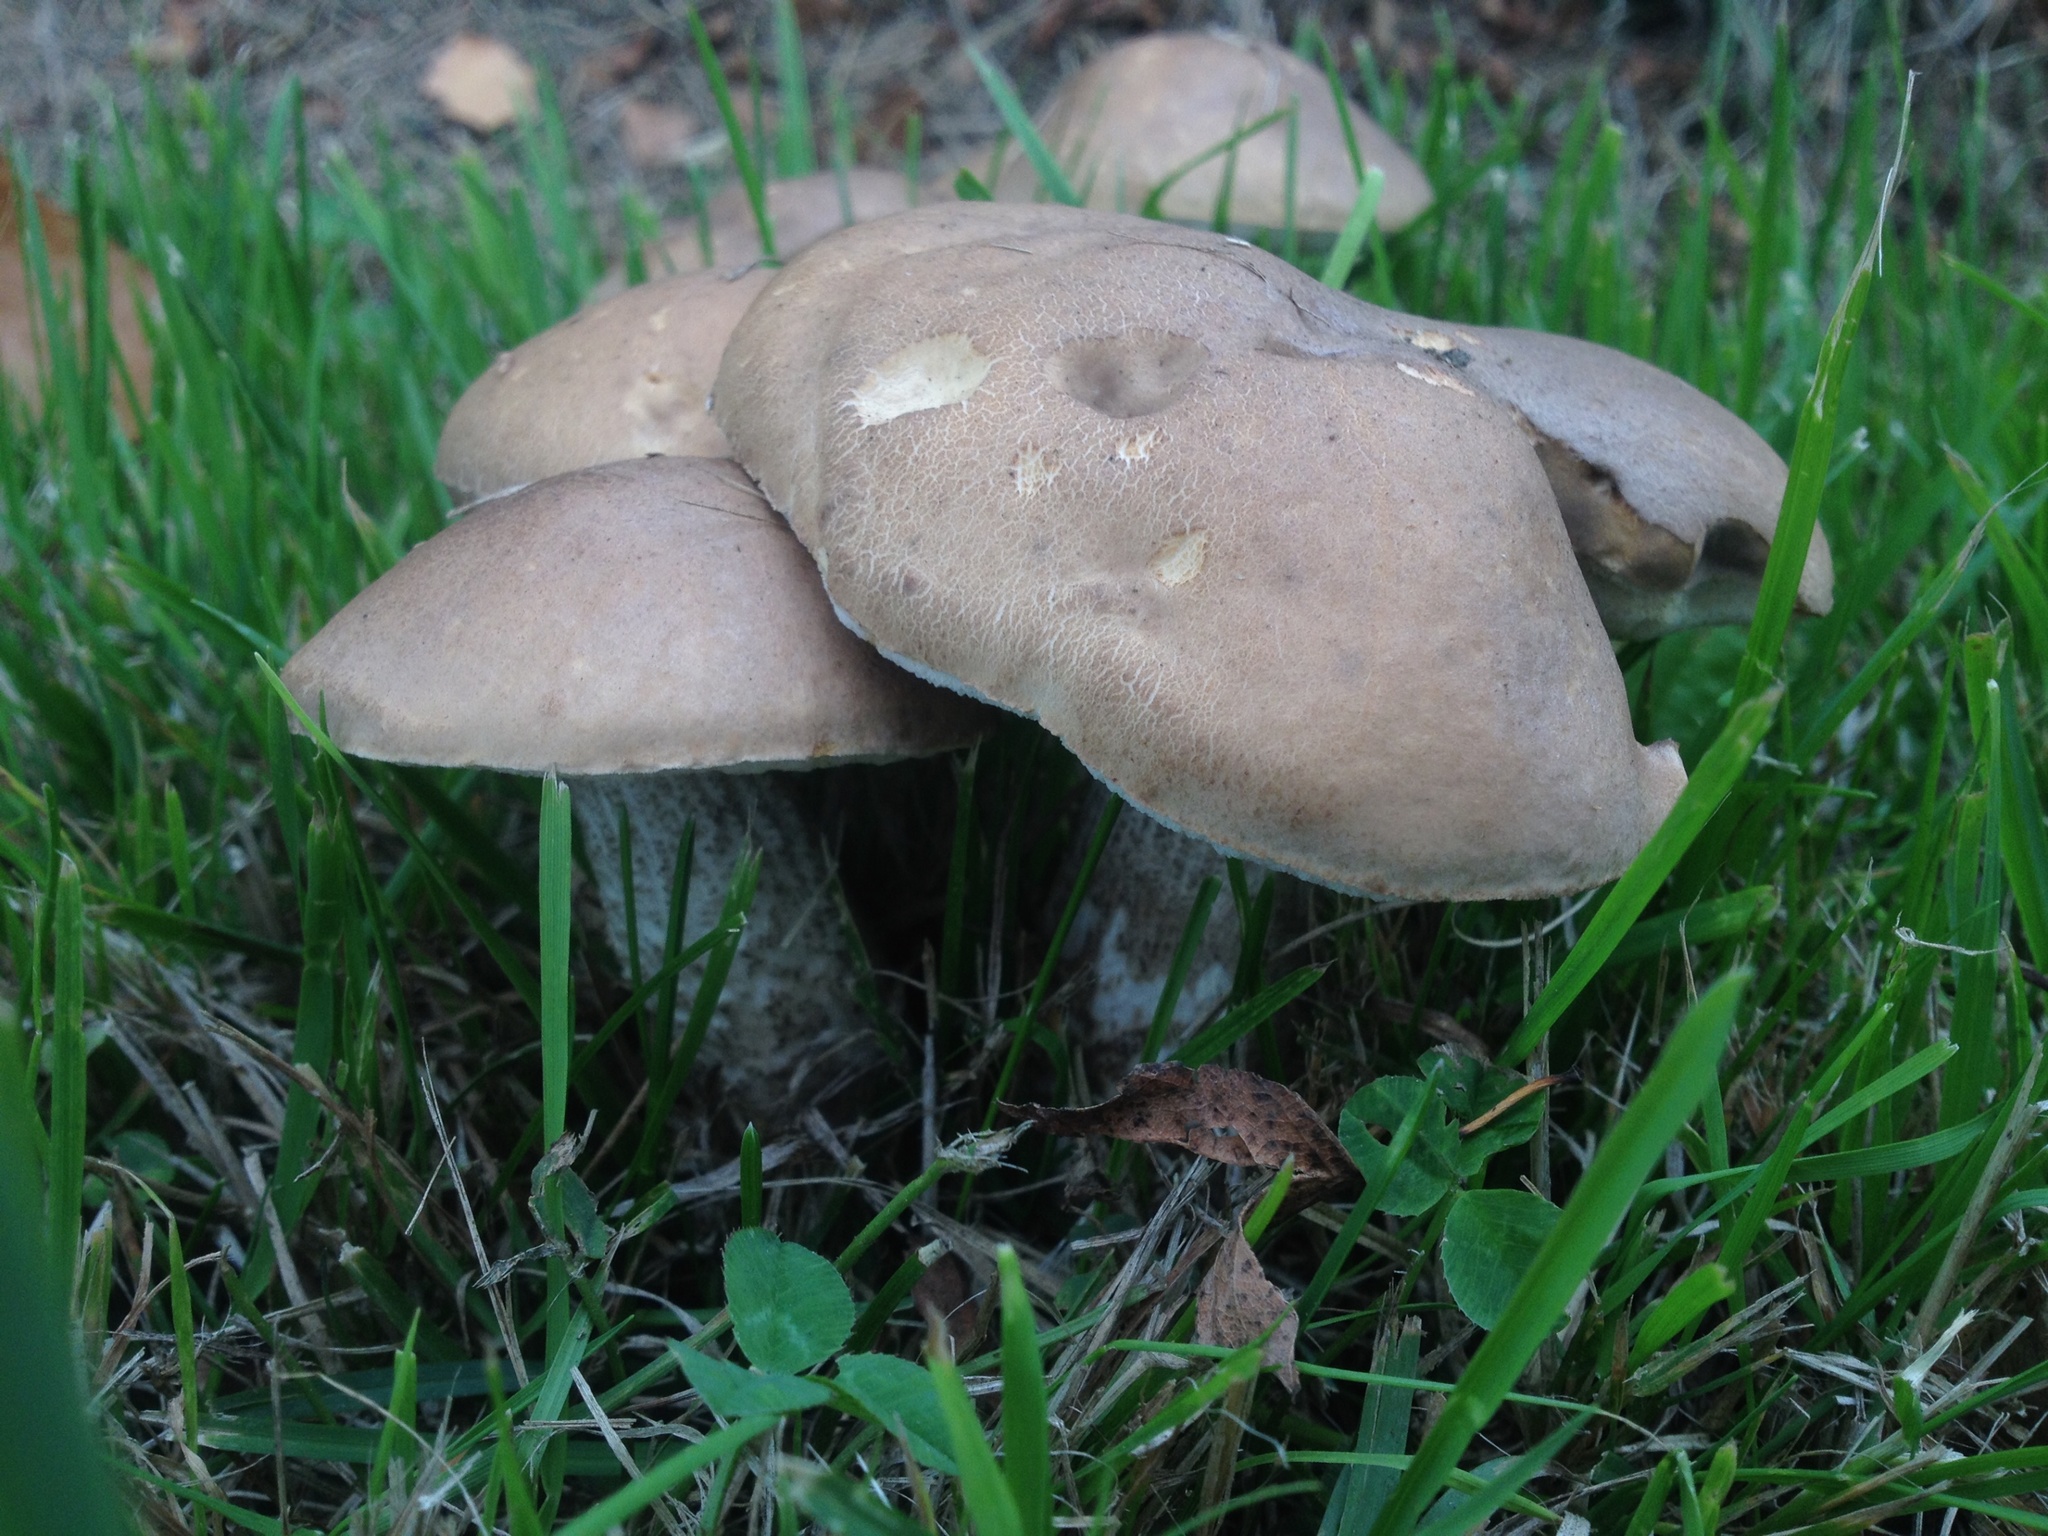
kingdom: Fungi
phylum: Basidiomycota
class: Agaricomycetes
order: Boletales
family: Boletaceae
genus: Leccinum
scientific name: Leccinum scabrum
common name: Blushing bolete
